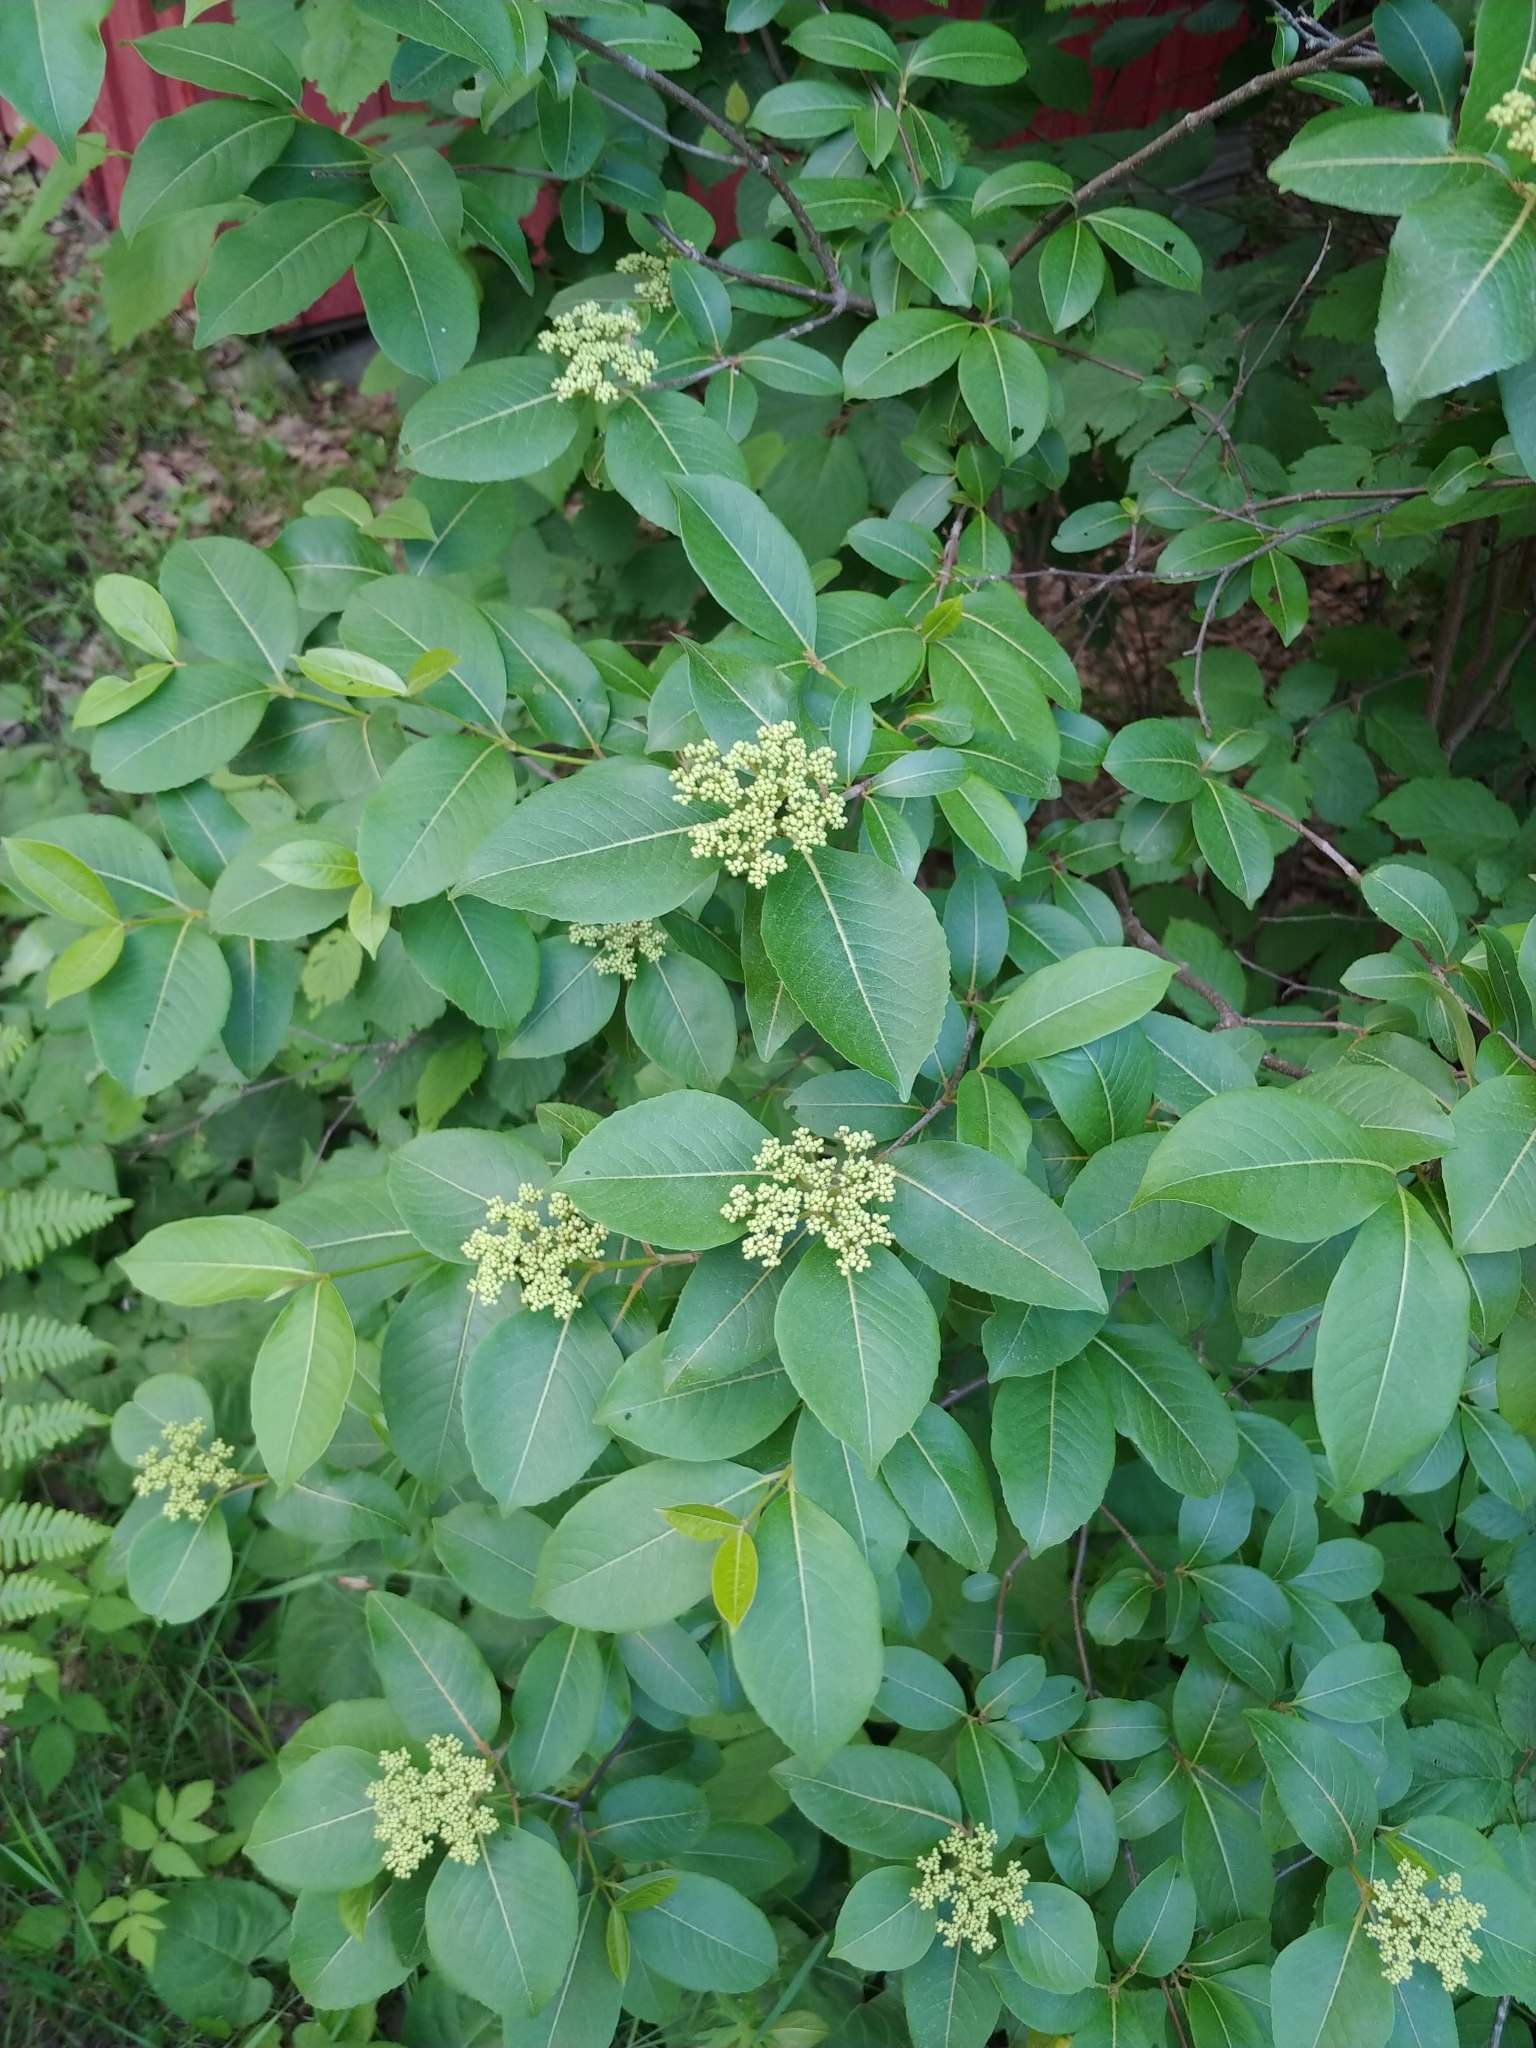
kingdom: Plantae
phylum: Tracheophyta
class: Magnoliopsida
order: Dipsacales
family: Viburnaceae
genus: Viburnum
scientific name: Viburnum cassinoides
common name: Swamp haw
